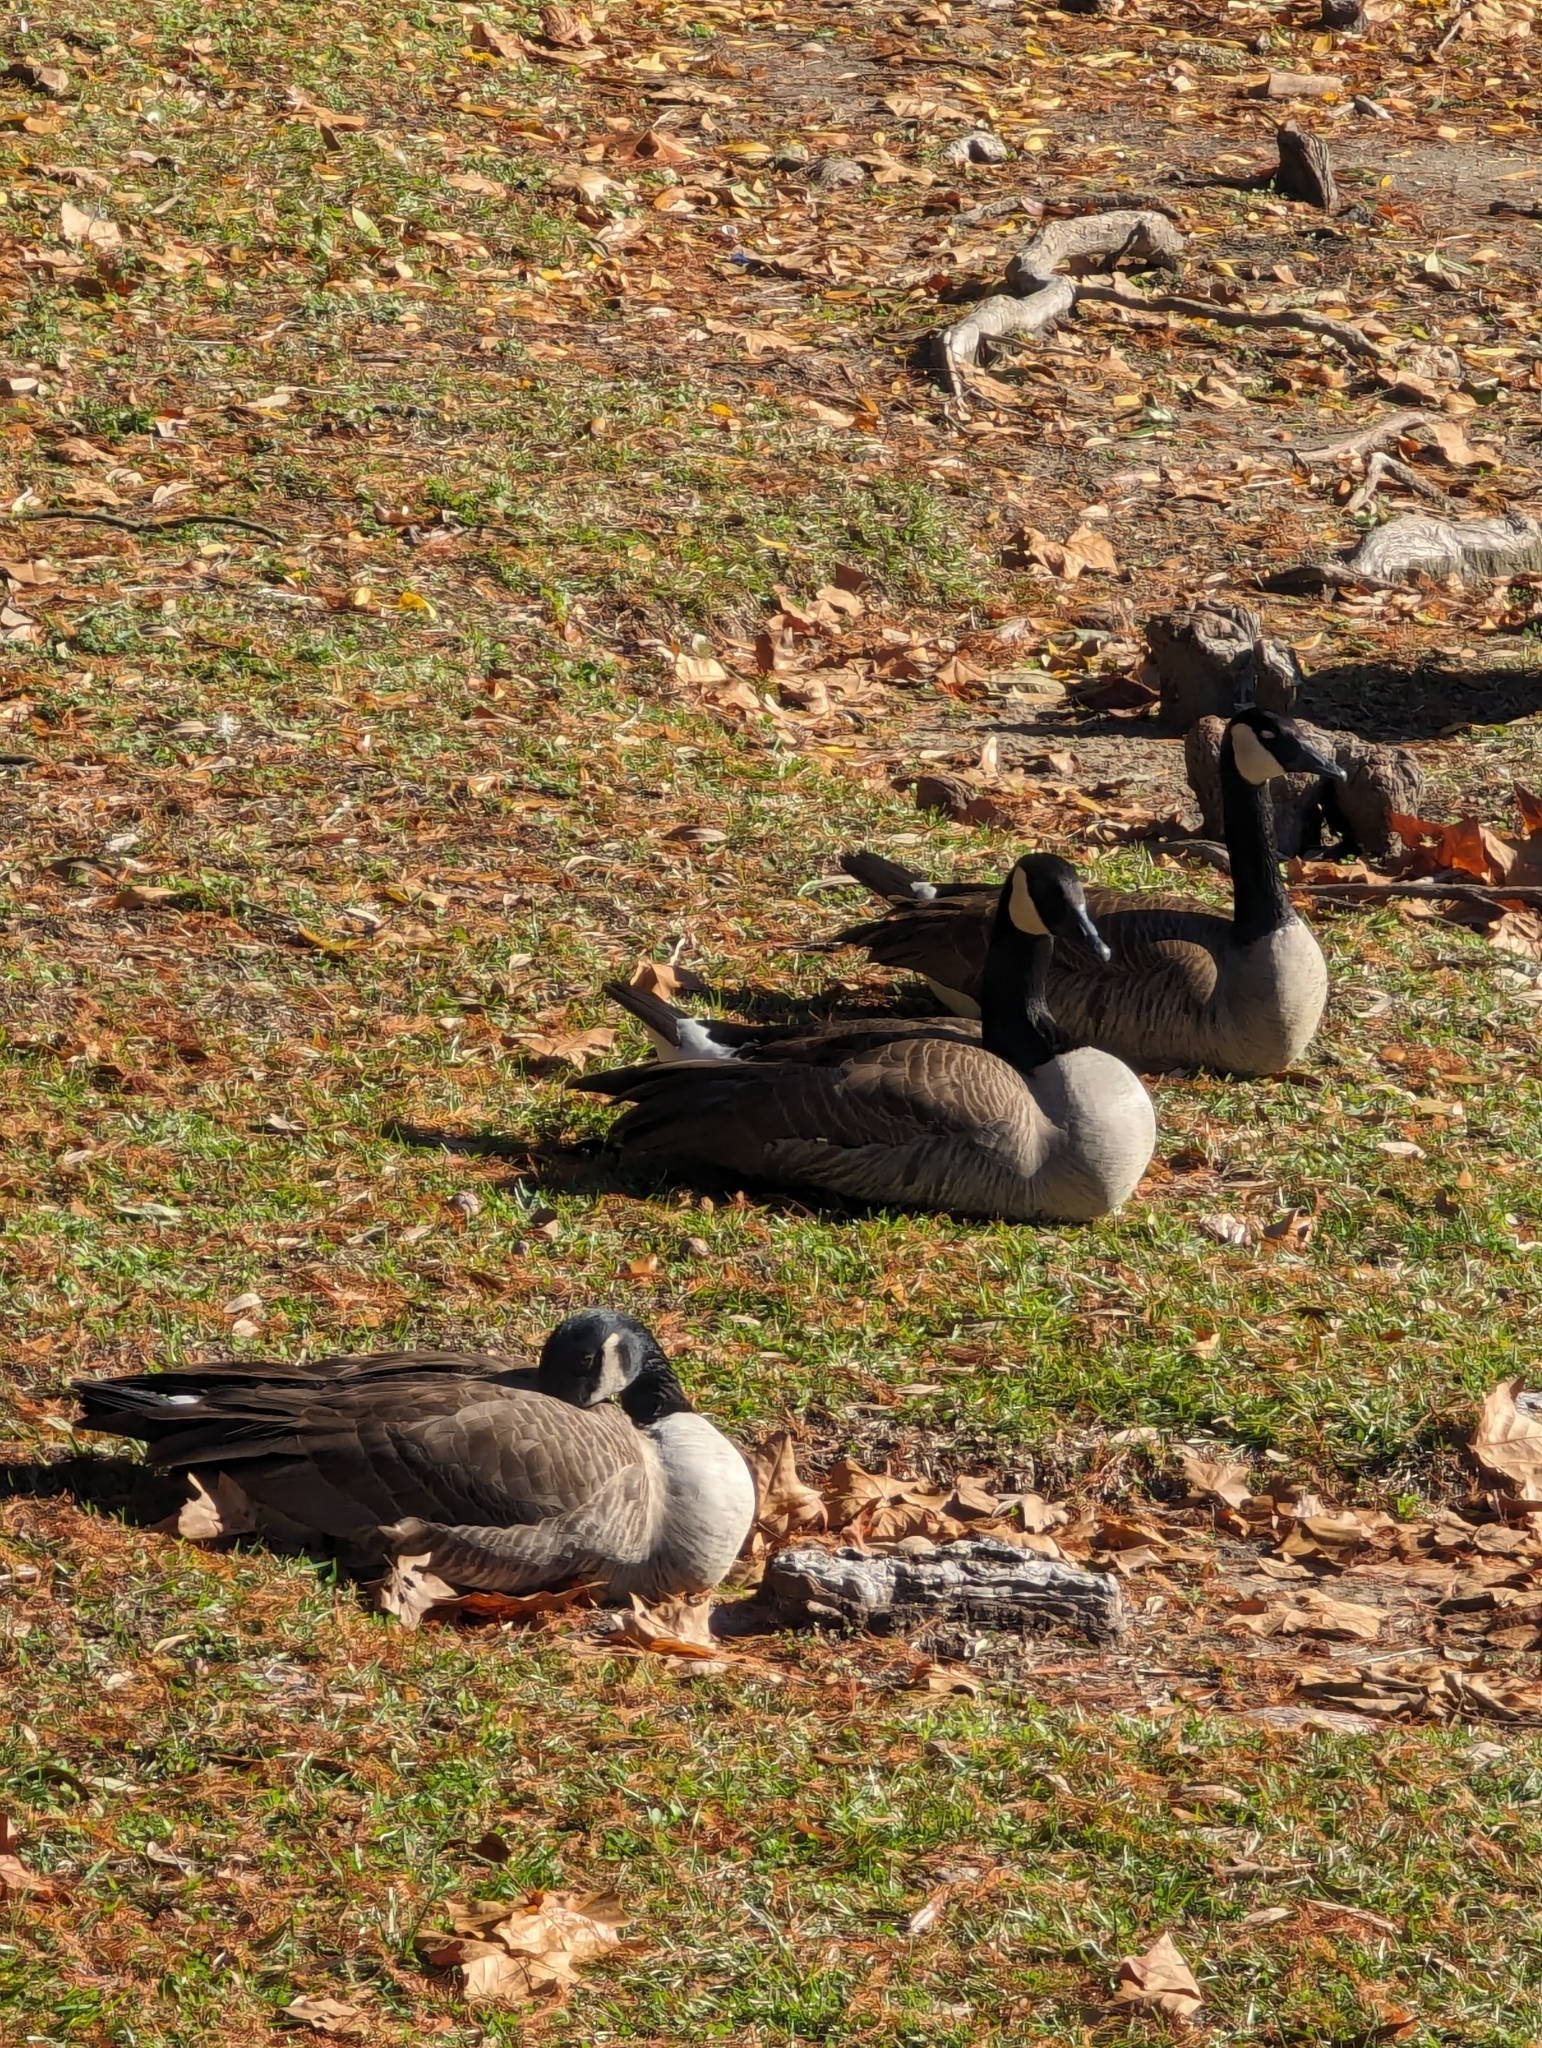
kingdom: Animalia
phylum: Chordata
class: Aves
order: Anseriformes
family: Anatidae
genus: Branta
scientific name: Branta canadensis
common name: Canada goose
